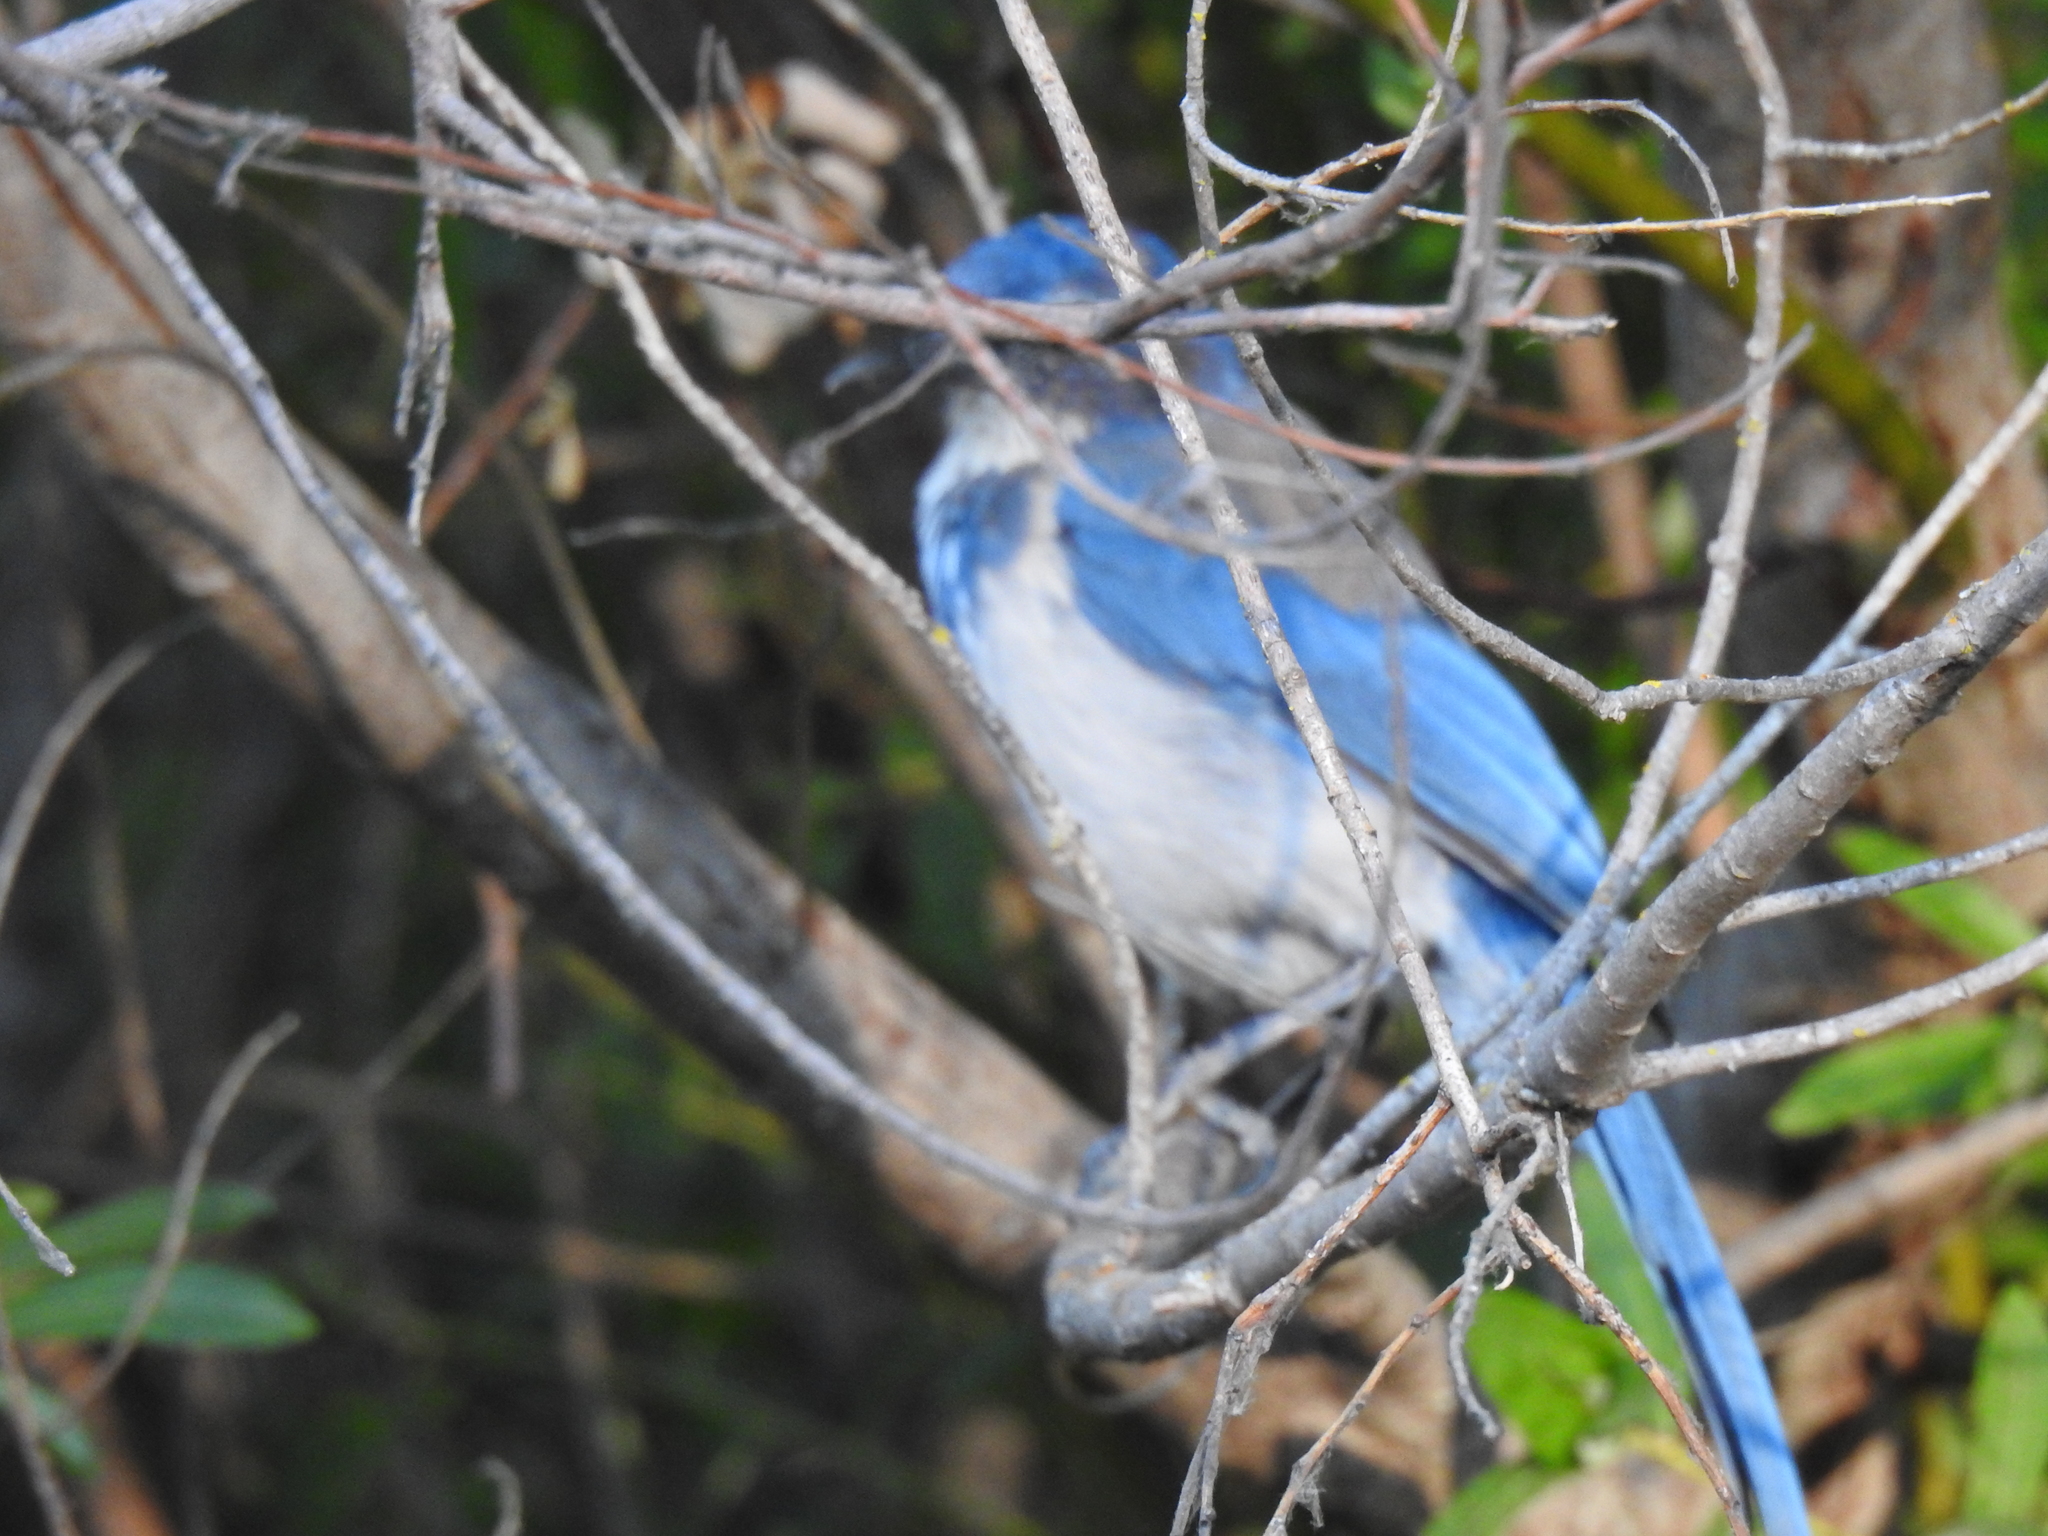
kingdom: Animalia
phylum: Chordata
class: Aves
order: Passeriformes
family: Corvidae
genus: Aphelocoma
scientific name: Aphelocoma californica
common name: California scrub-jay
